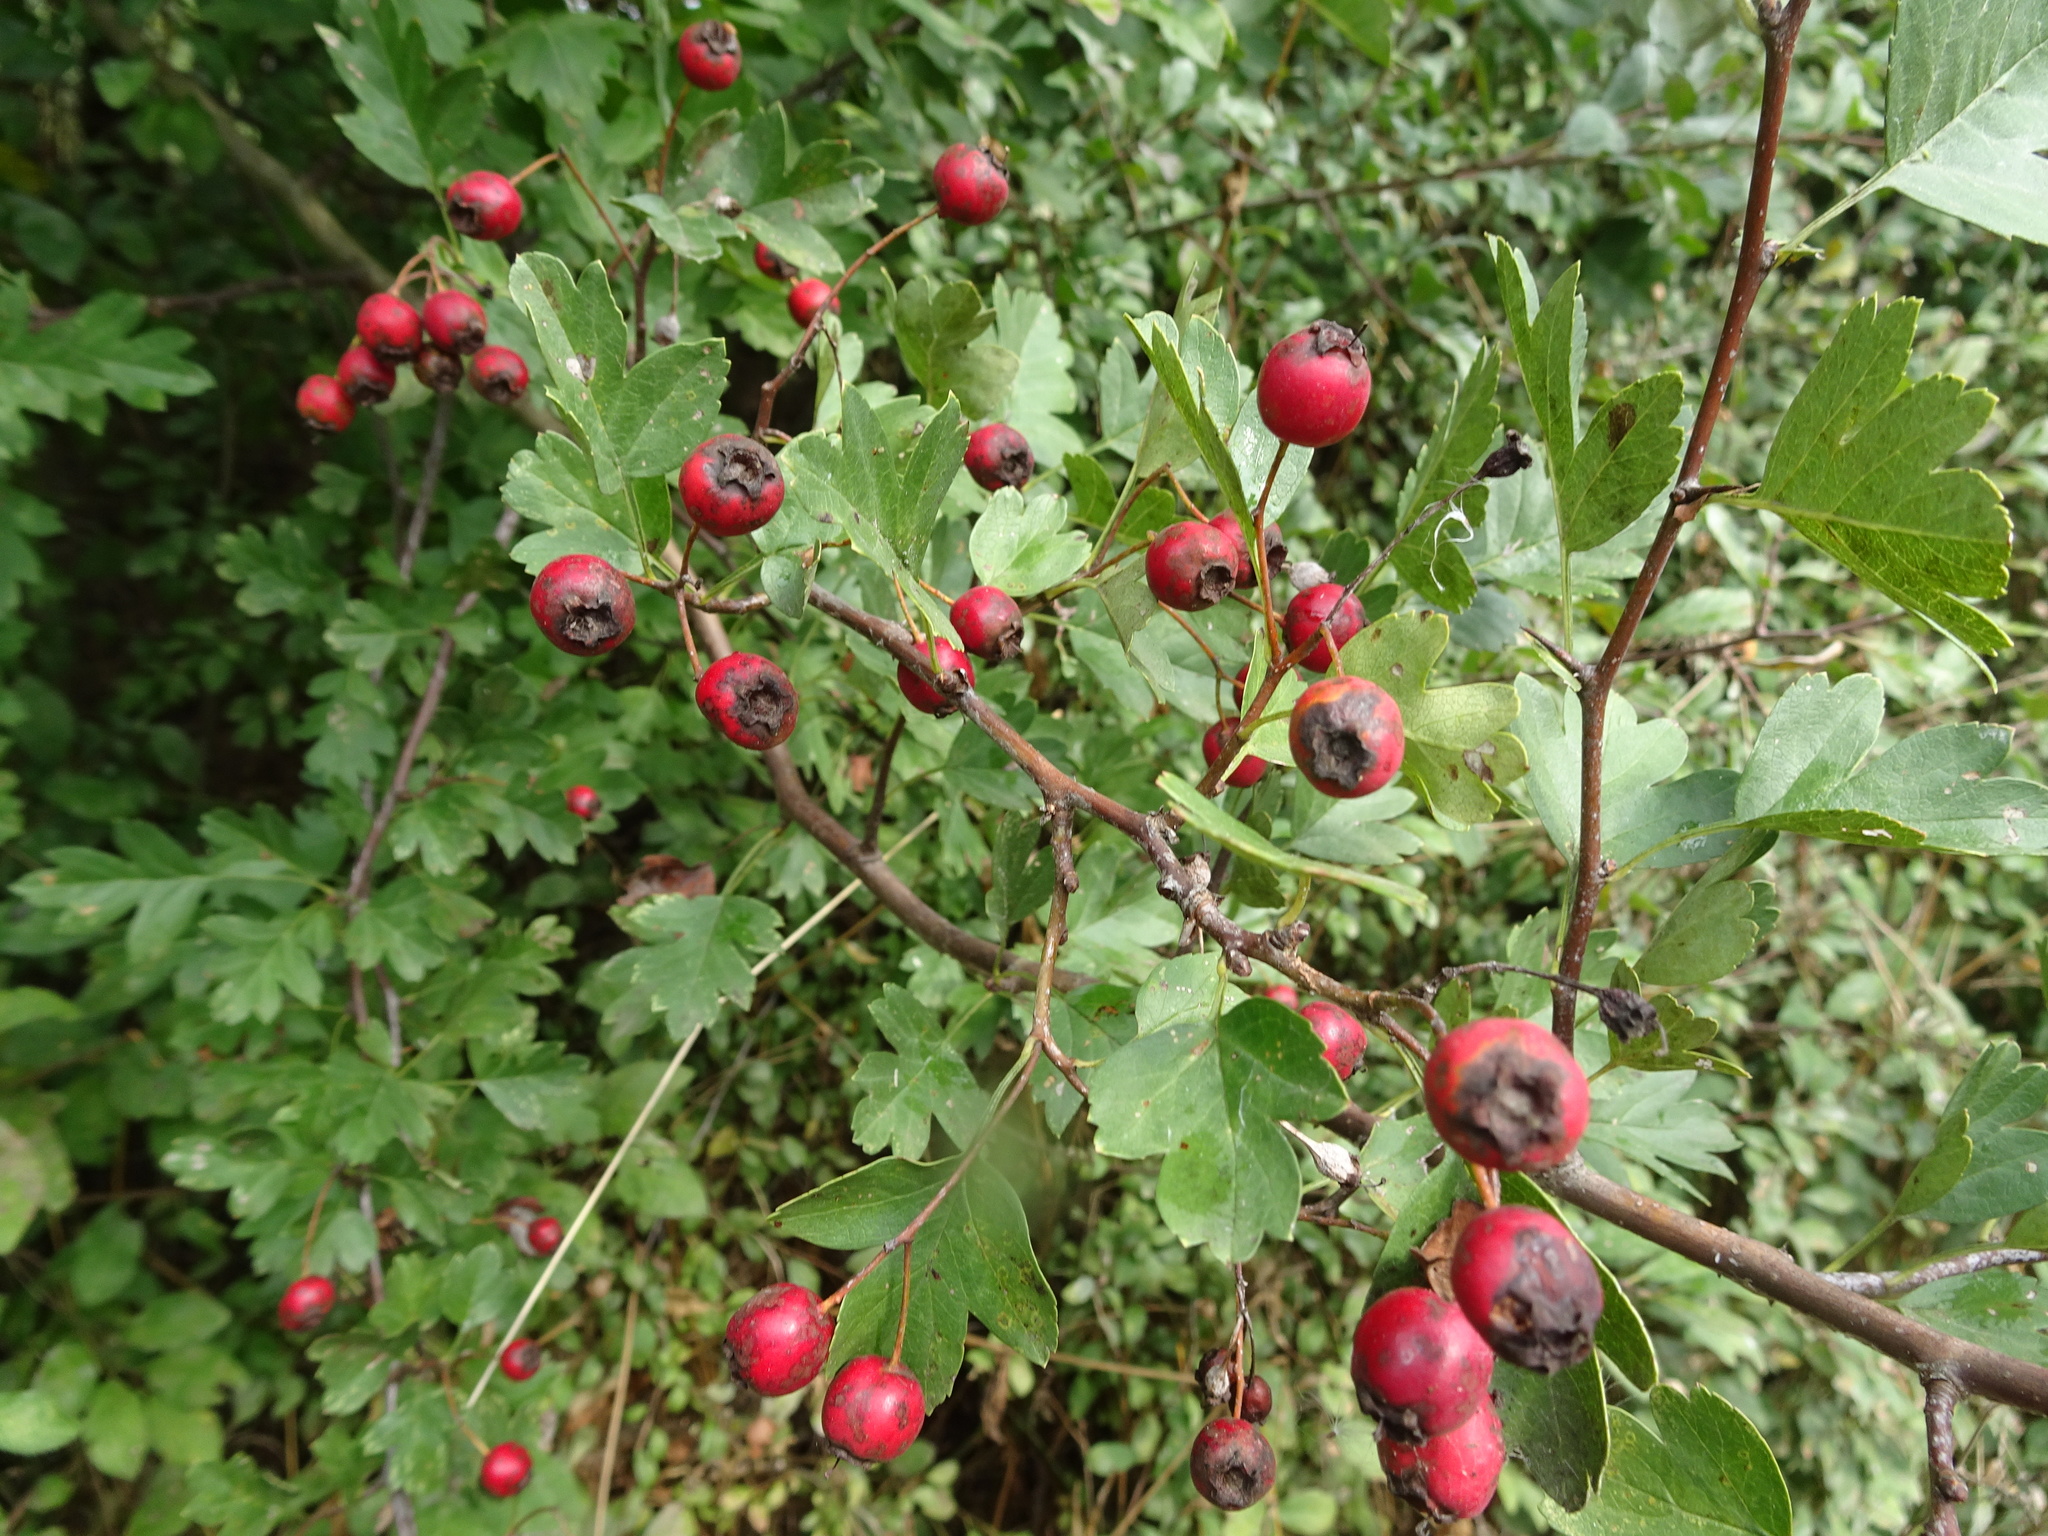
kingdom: Plantae
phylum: Tracheophyta
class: Magnoliopsida
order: Rosales
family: Rosaceae
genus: Crataegus
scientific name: Crataegus monogyna
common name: Hawthorn
